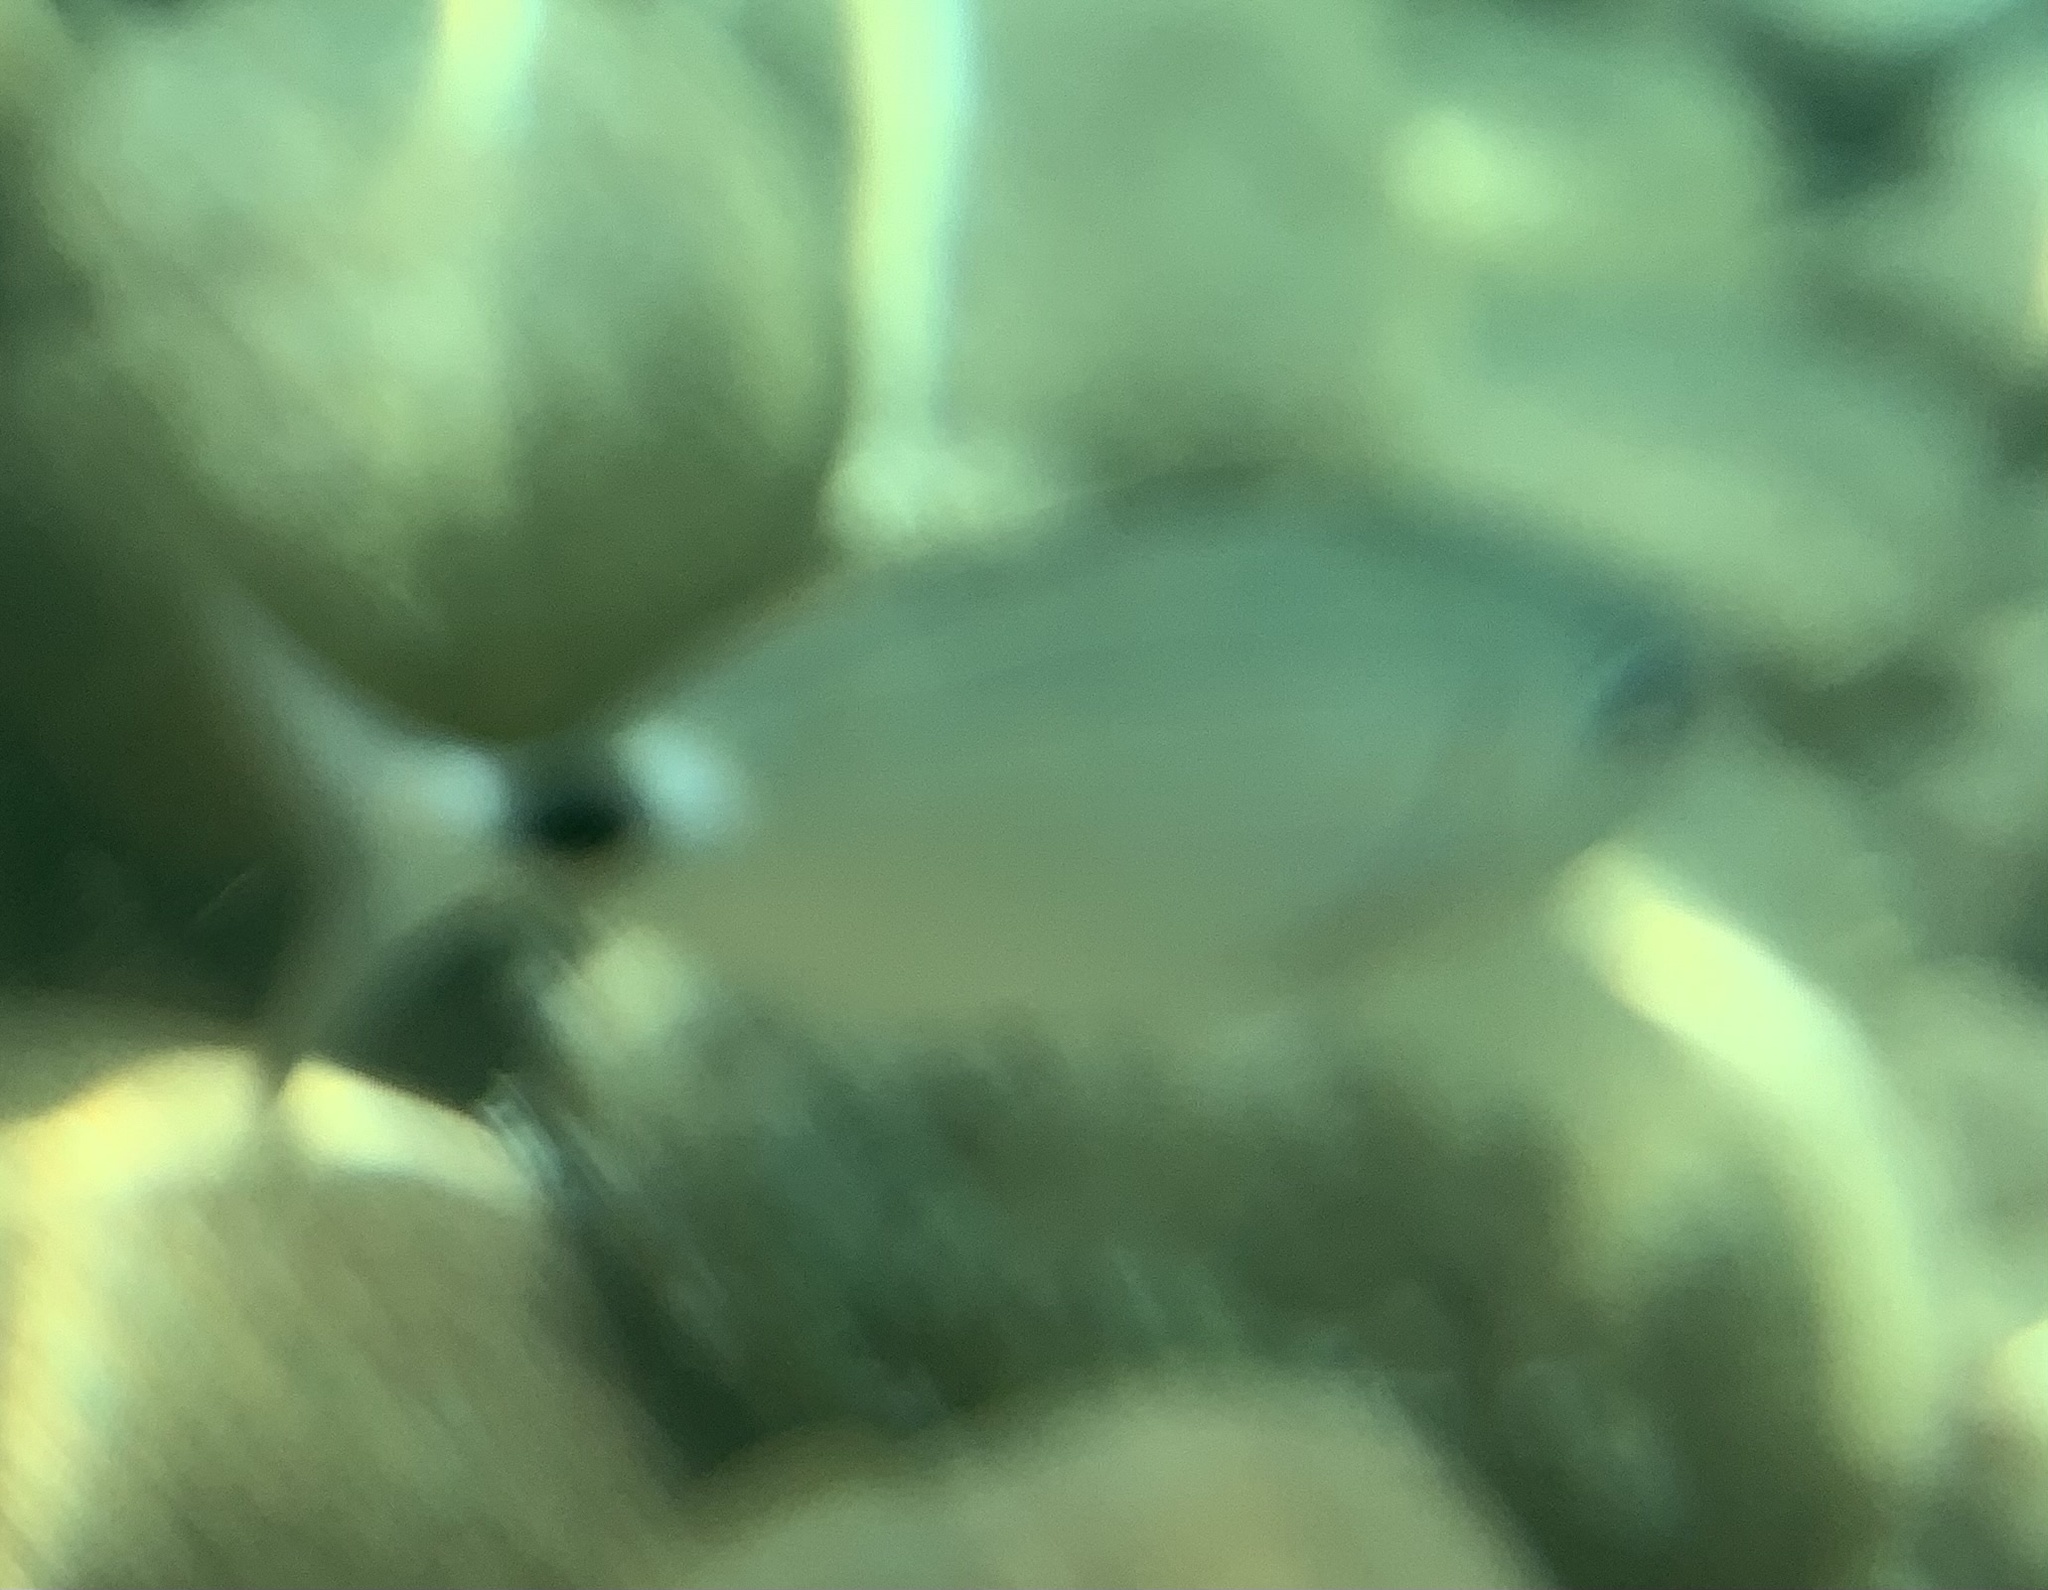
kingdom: Animalia
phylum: Chordata
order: Perciformes
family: Sparidae
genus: Oblada
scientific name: Oblada melanura
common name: Saddled seabream
